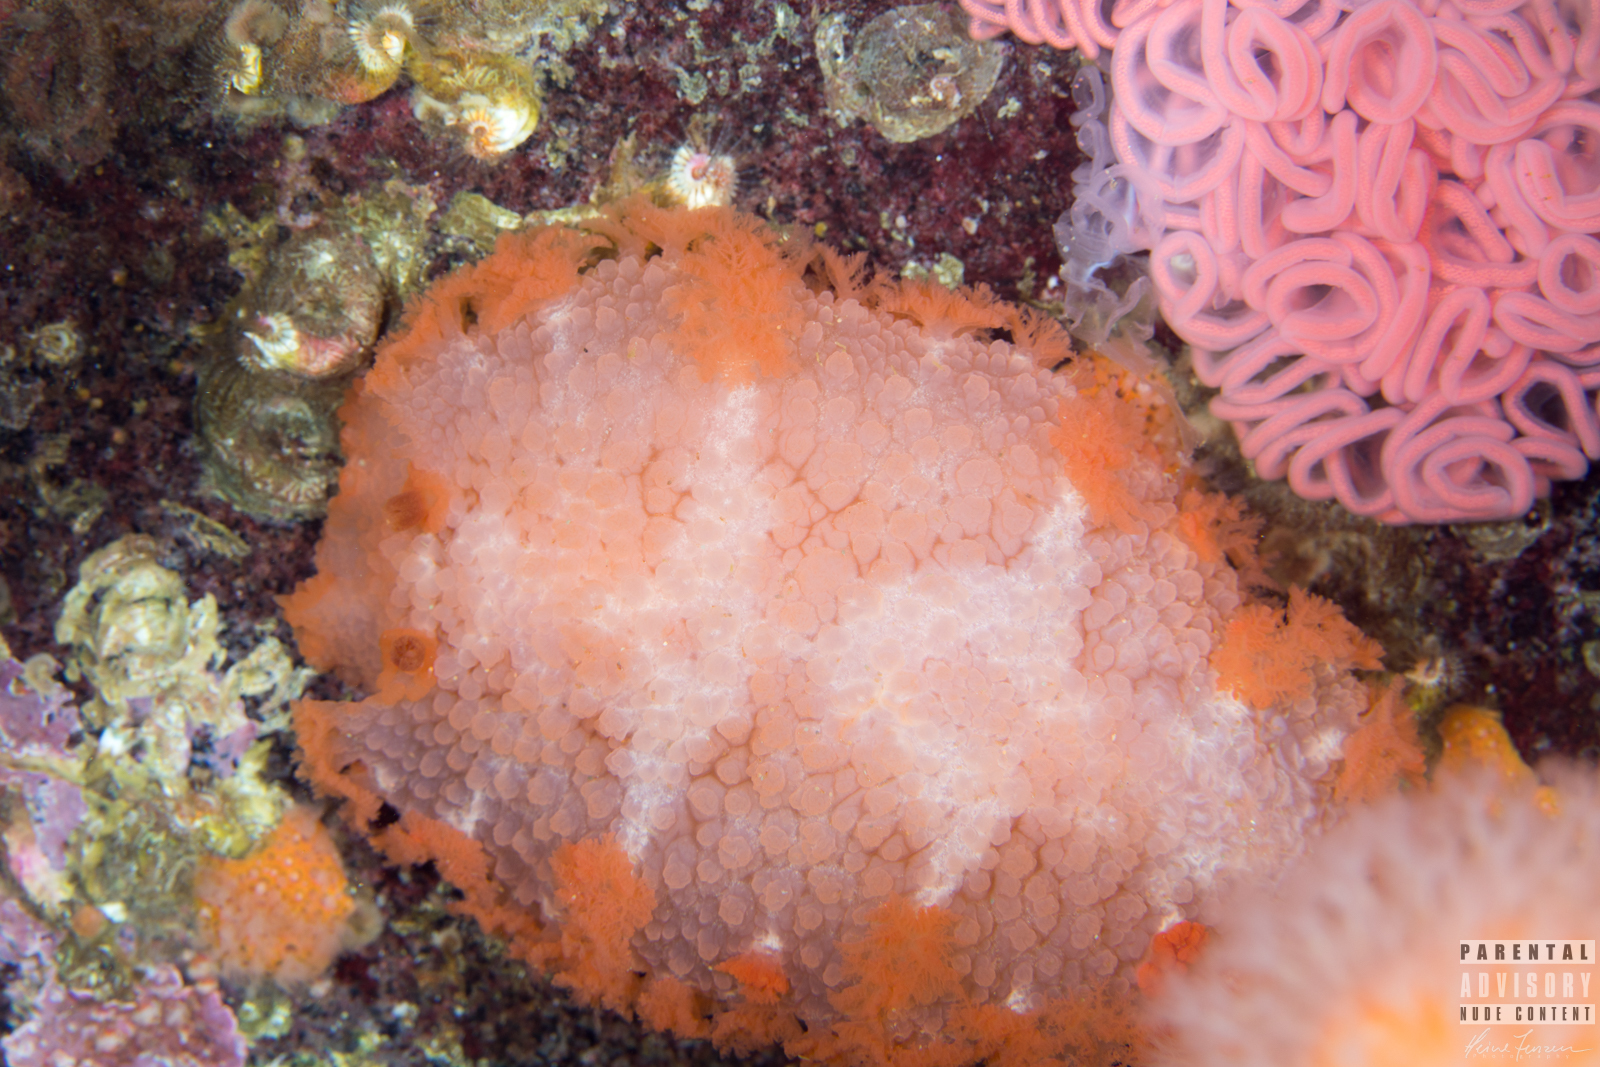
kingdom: Animalia
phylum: Mollusca
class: Gastropoda
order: Nudibranchia
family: Tritoniidae
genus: Tritonia
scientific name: Tritonia hombergii
